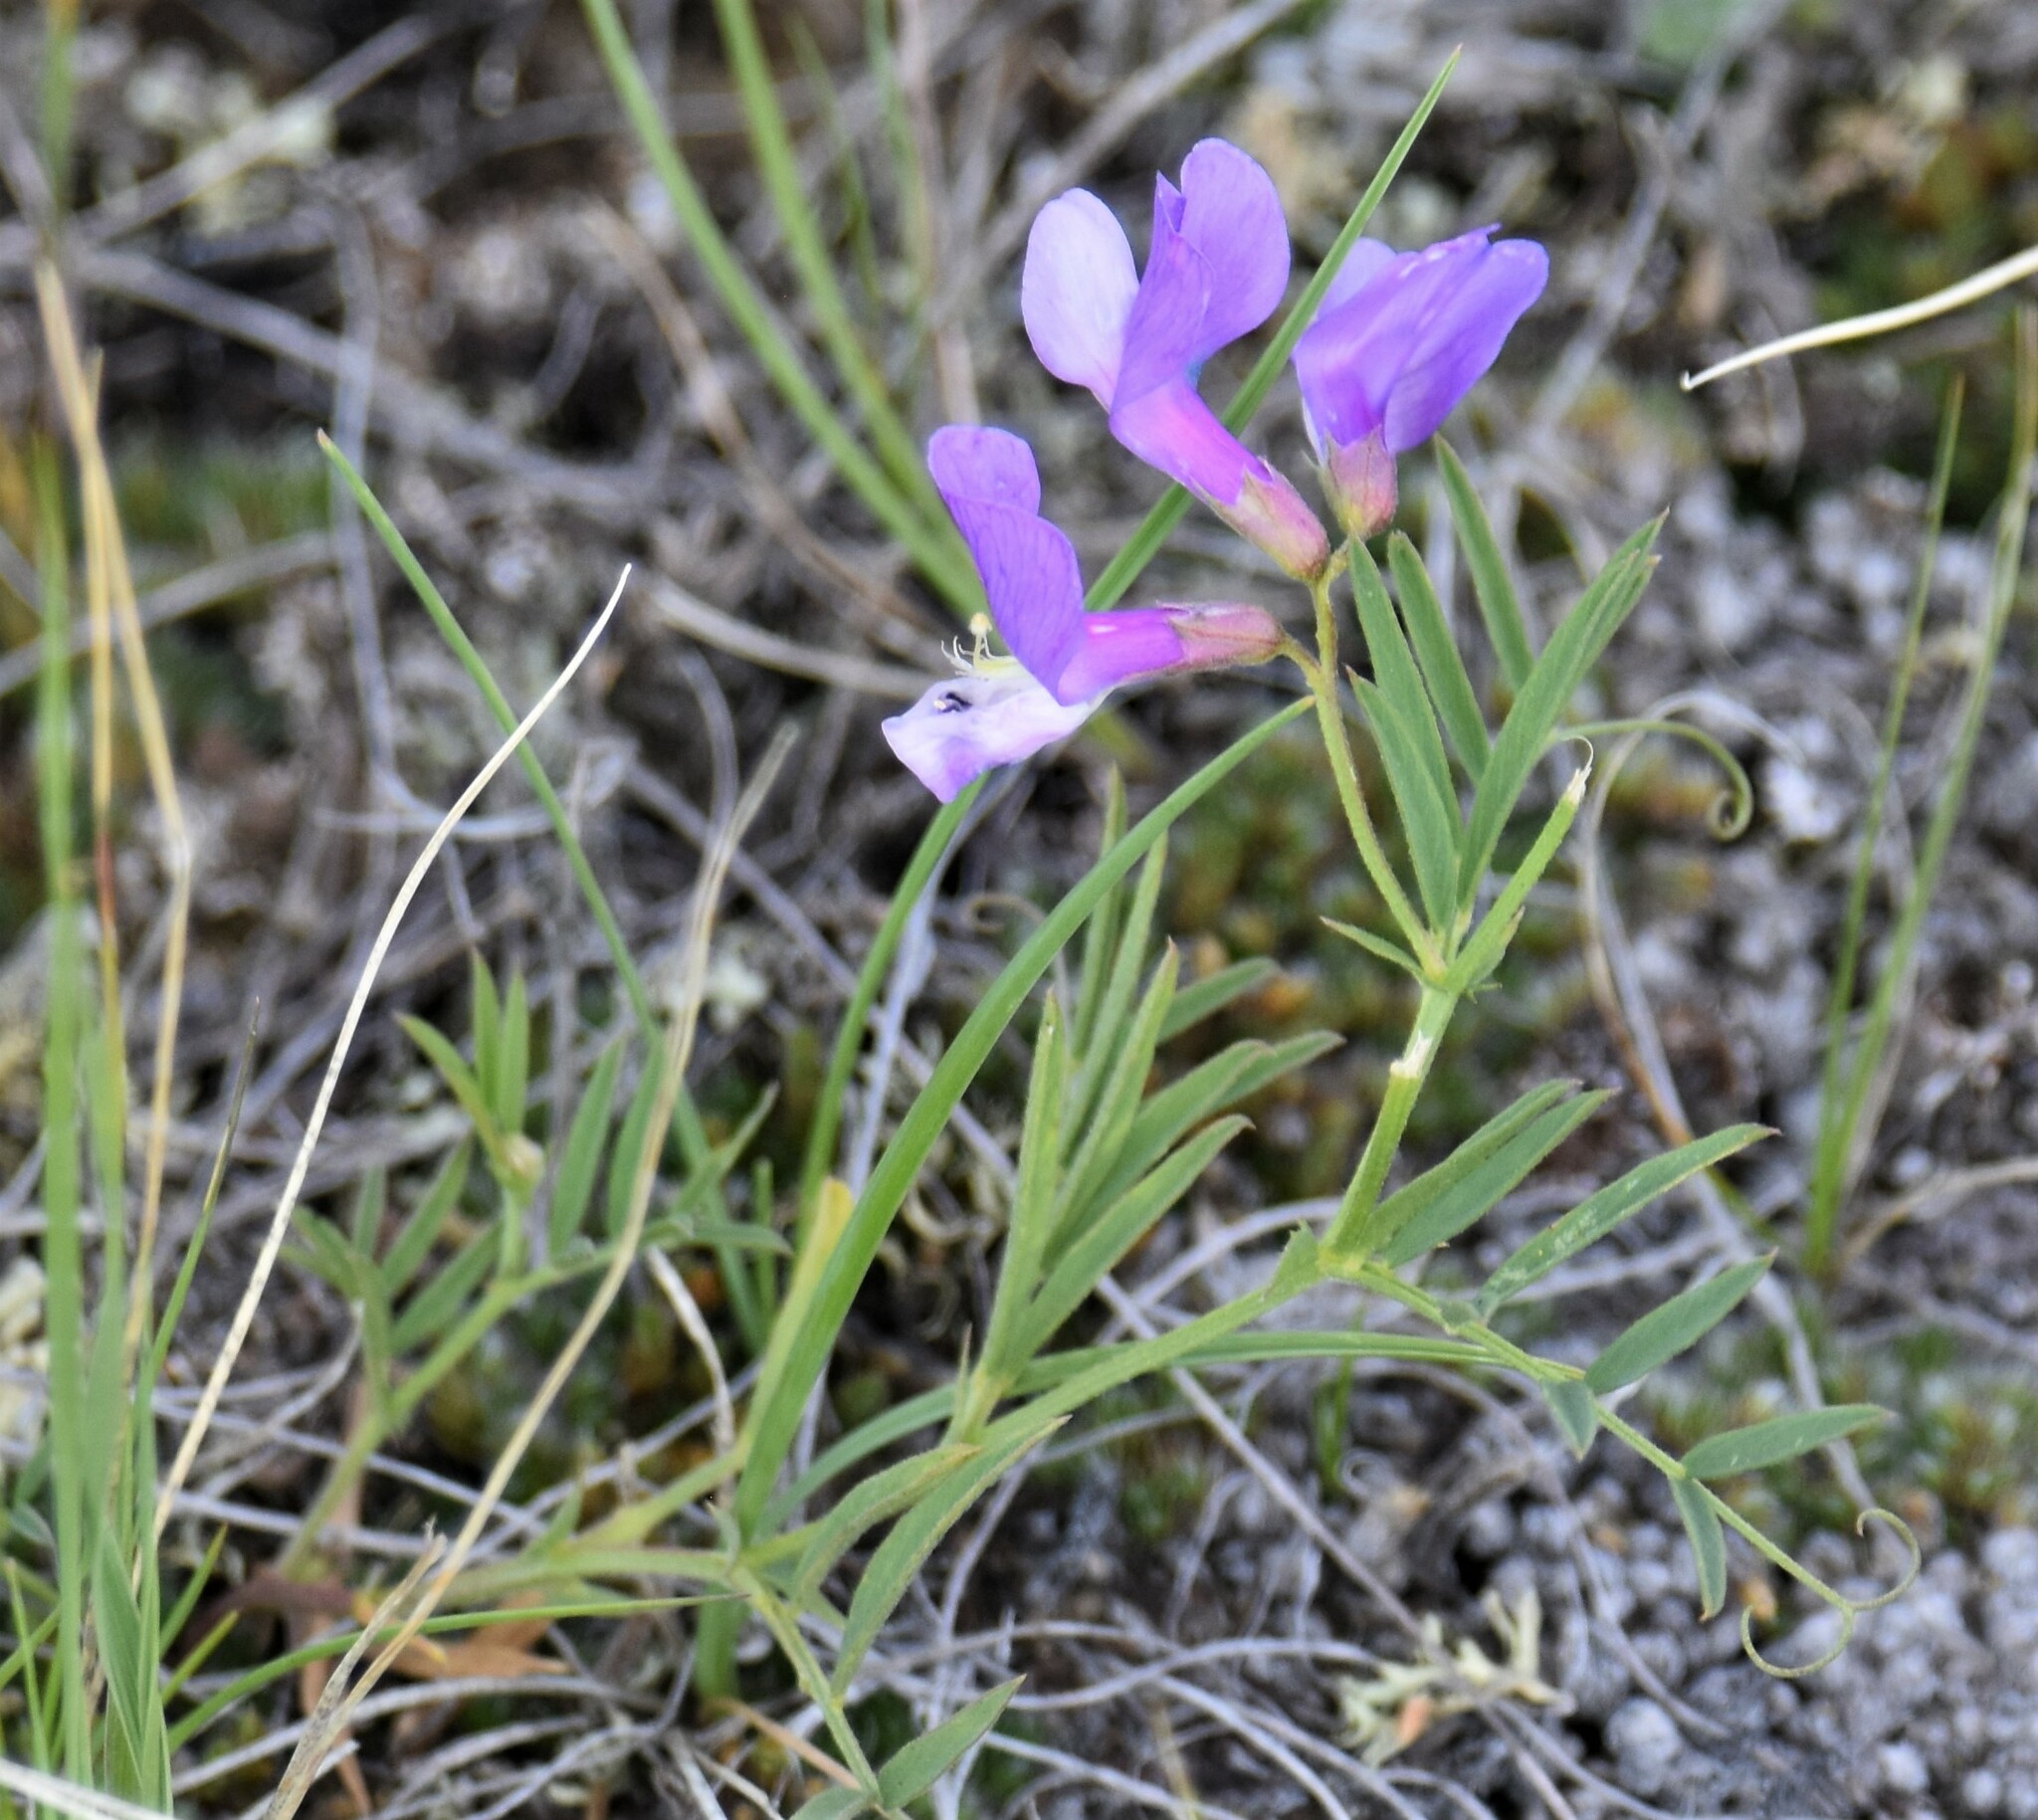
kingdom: Plantae
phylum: Tracheophyta
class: Magnoliopsida
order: Fabales
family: Fabaceae
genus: Vicia
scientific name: Vicia americana
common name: American vetch
